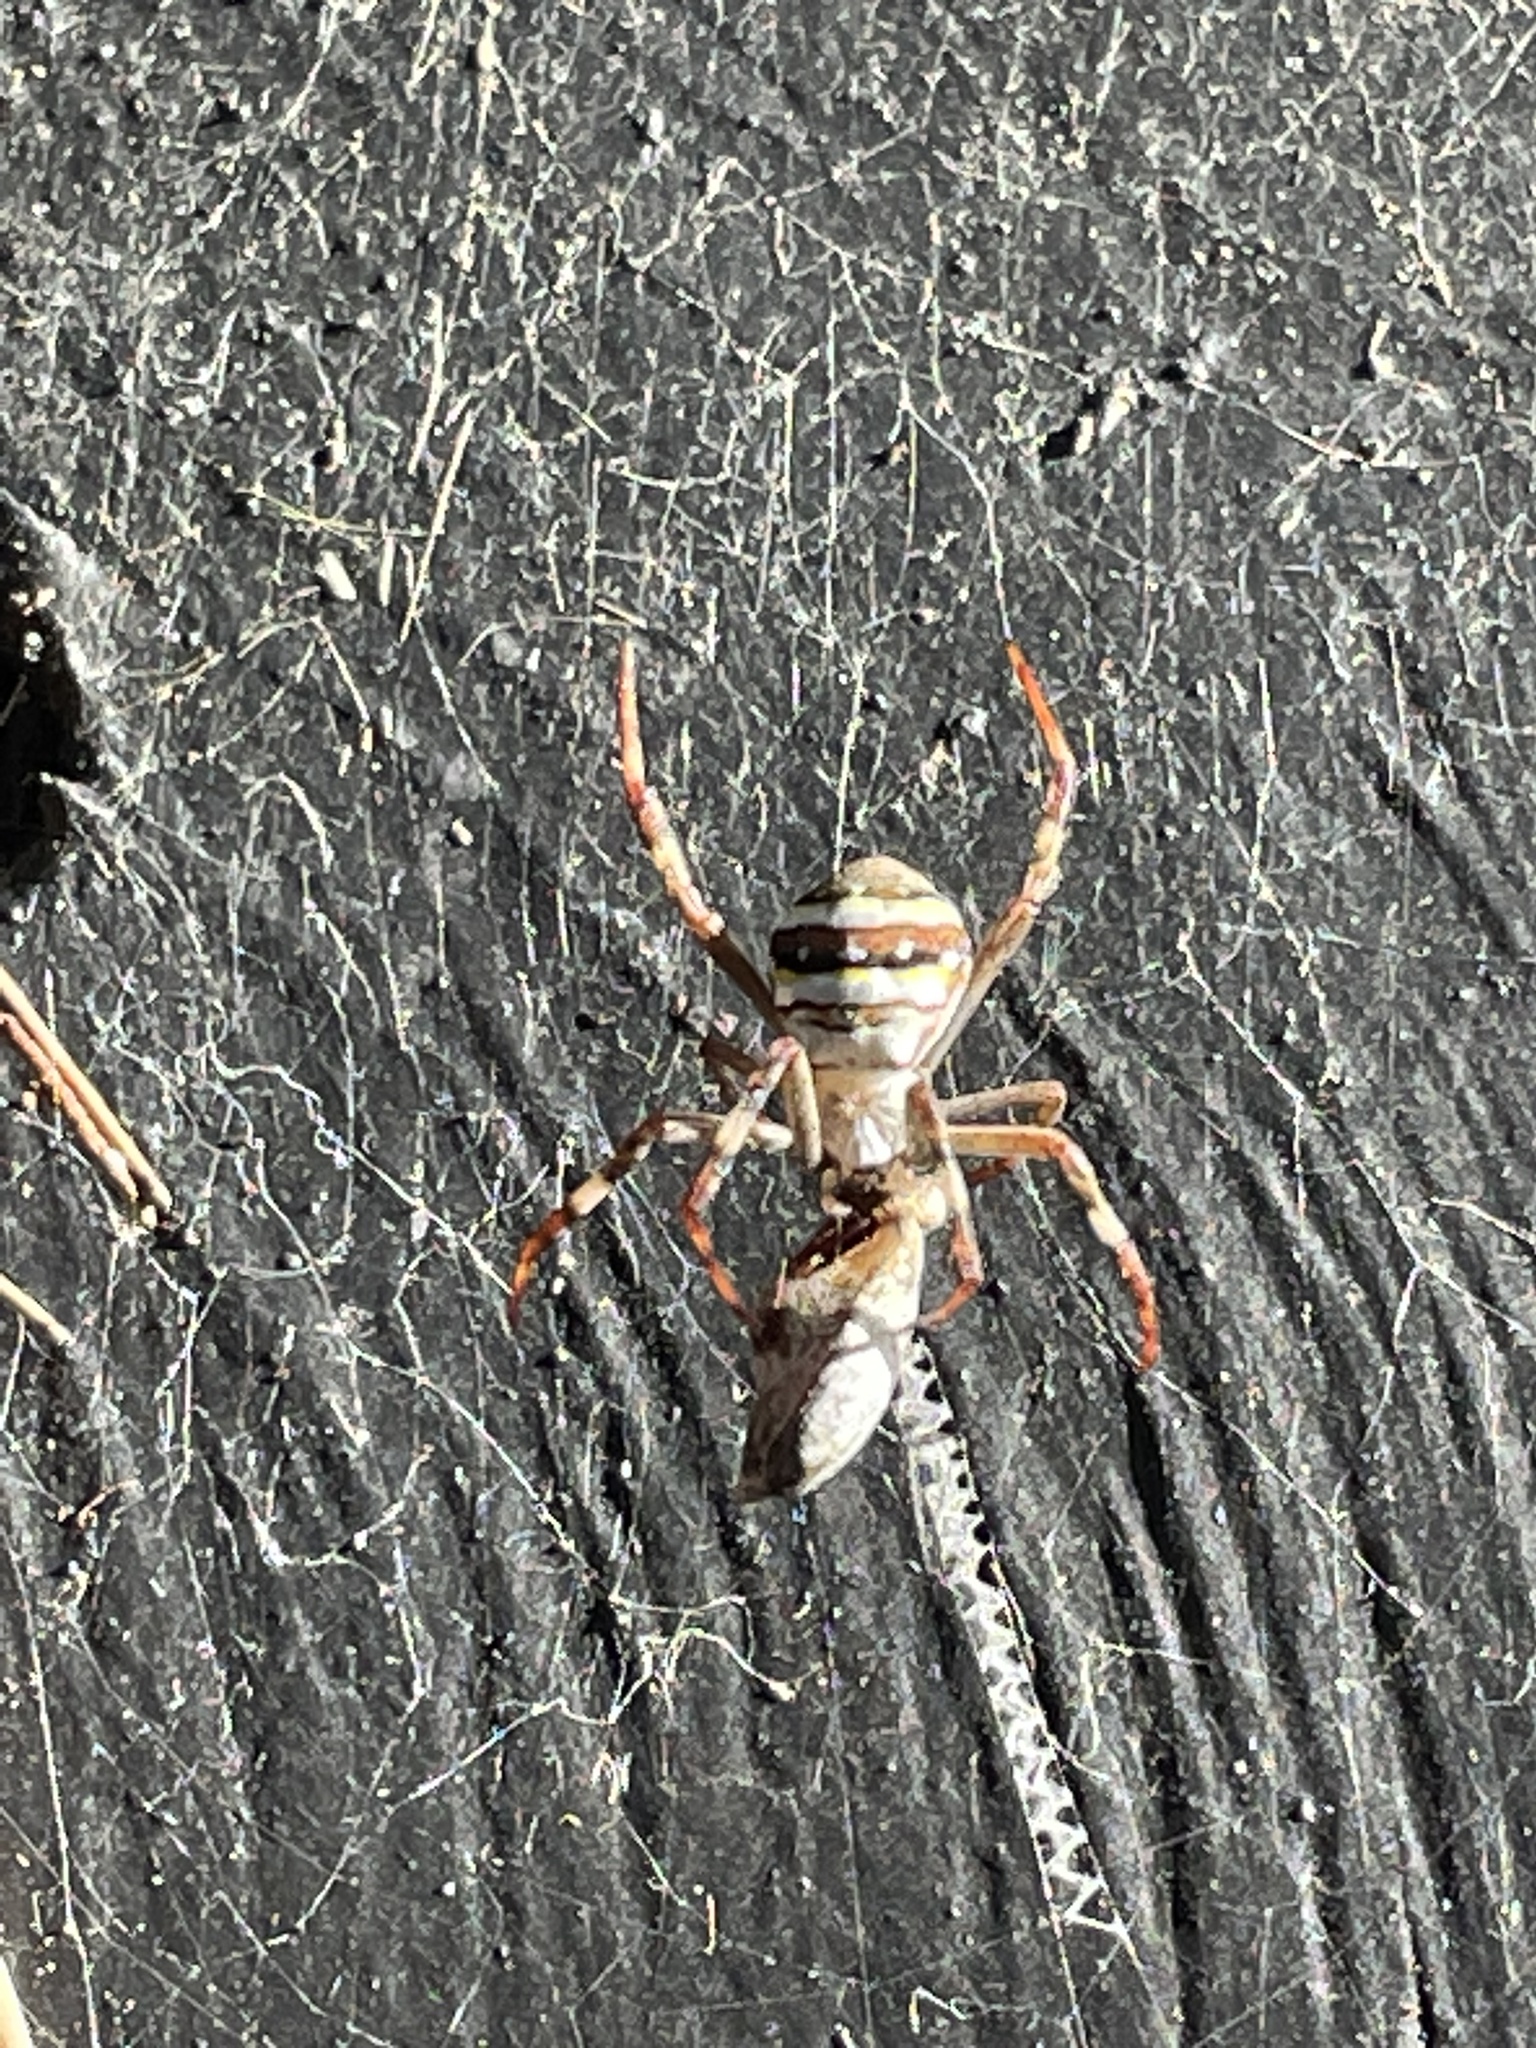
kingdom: Animalia
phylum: Arthropoda
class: Arachnida
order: Araneae
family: Araneidae
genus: Argiope
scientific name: Argiope keyserlingi
